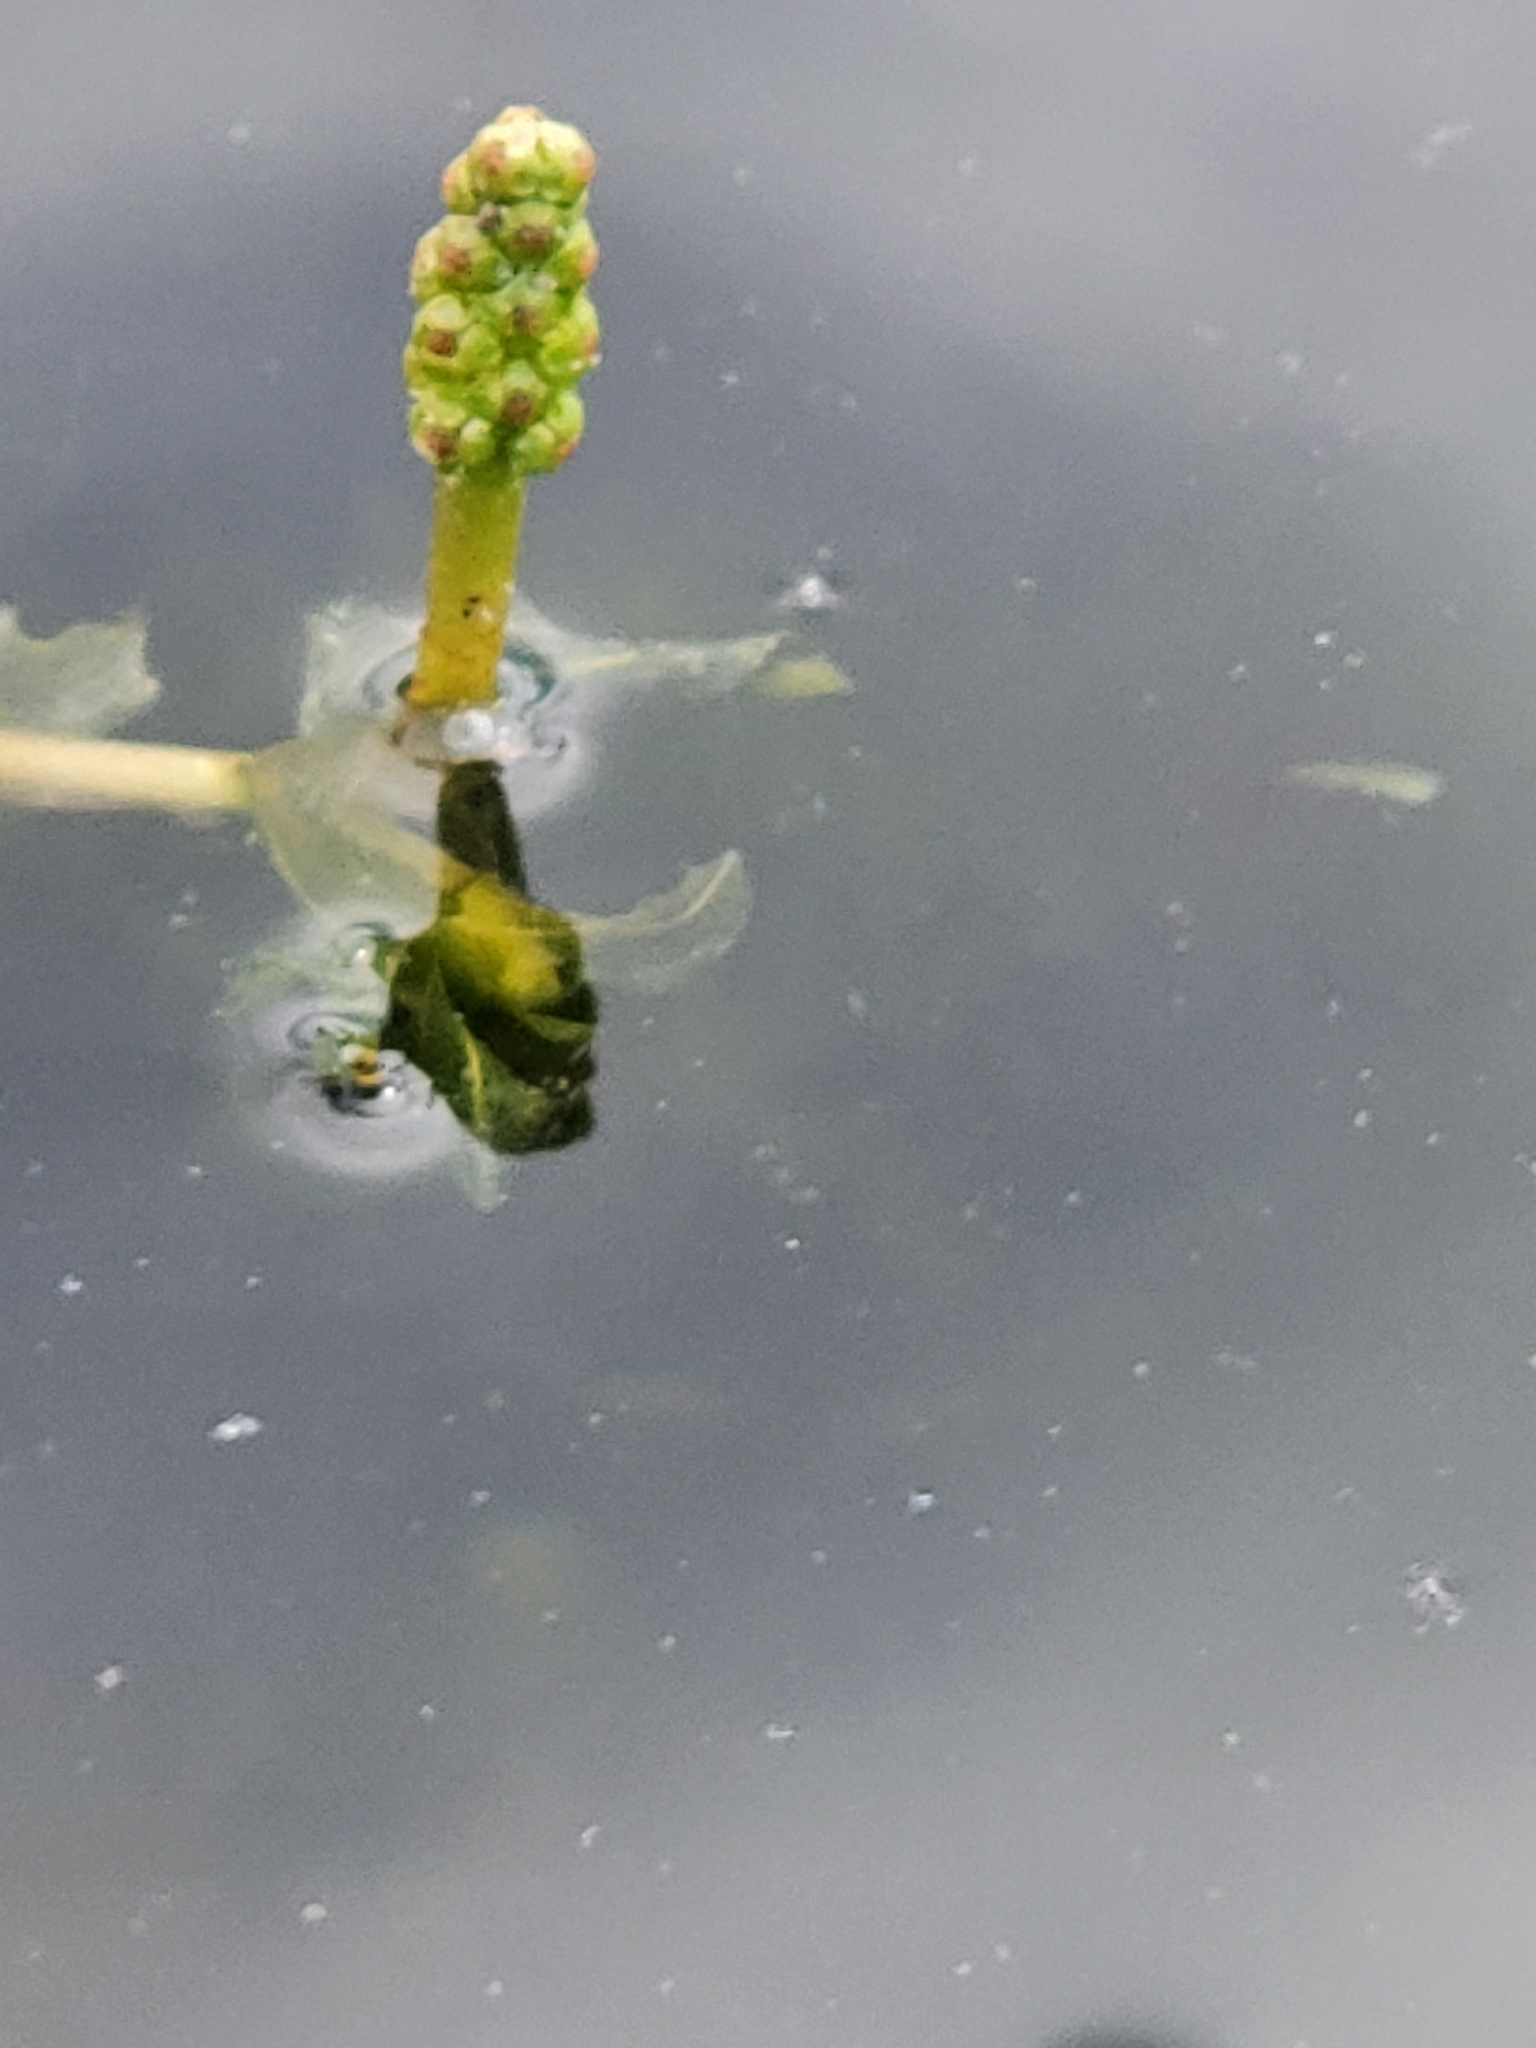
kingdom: Plantae
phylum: Tracheophyta
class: Liliopsida
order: Alismatales
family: Potamogetonaceae
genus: Potamogeton
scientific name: Potamogeton richardsonii
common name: Richardson's pondweed
